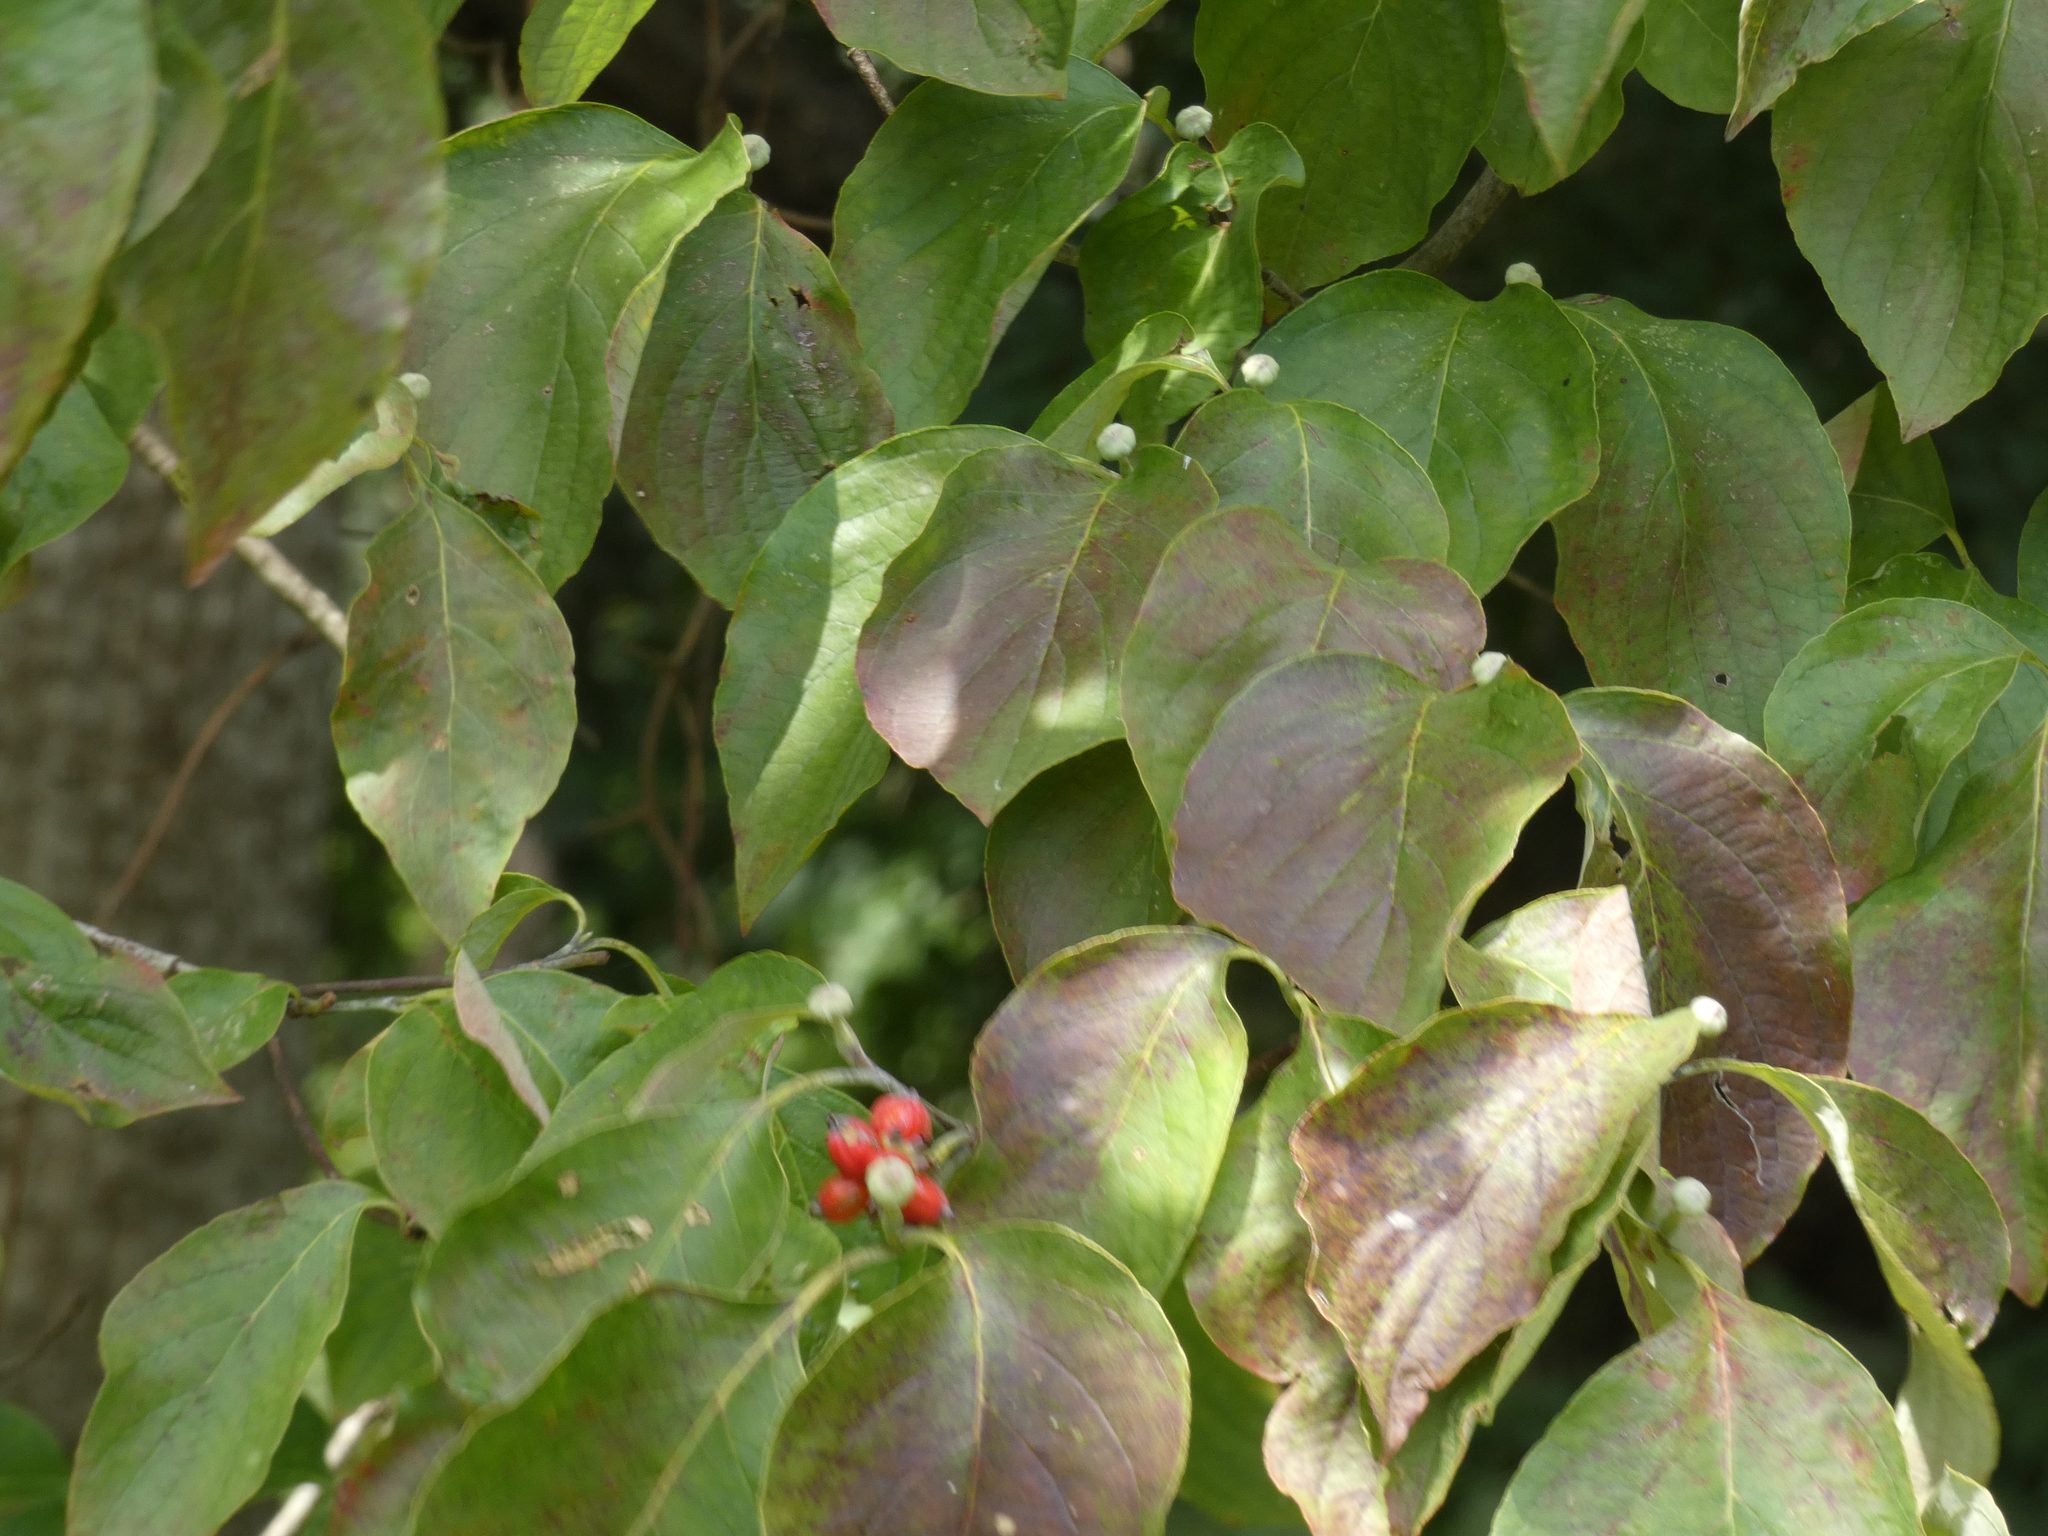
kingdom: Plantae
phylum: Tracheophyta
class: Magnoliopsida
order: Cornales
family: Cornaceae
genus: Cornus
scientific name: Cornus florida
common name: Flowering dogwood
